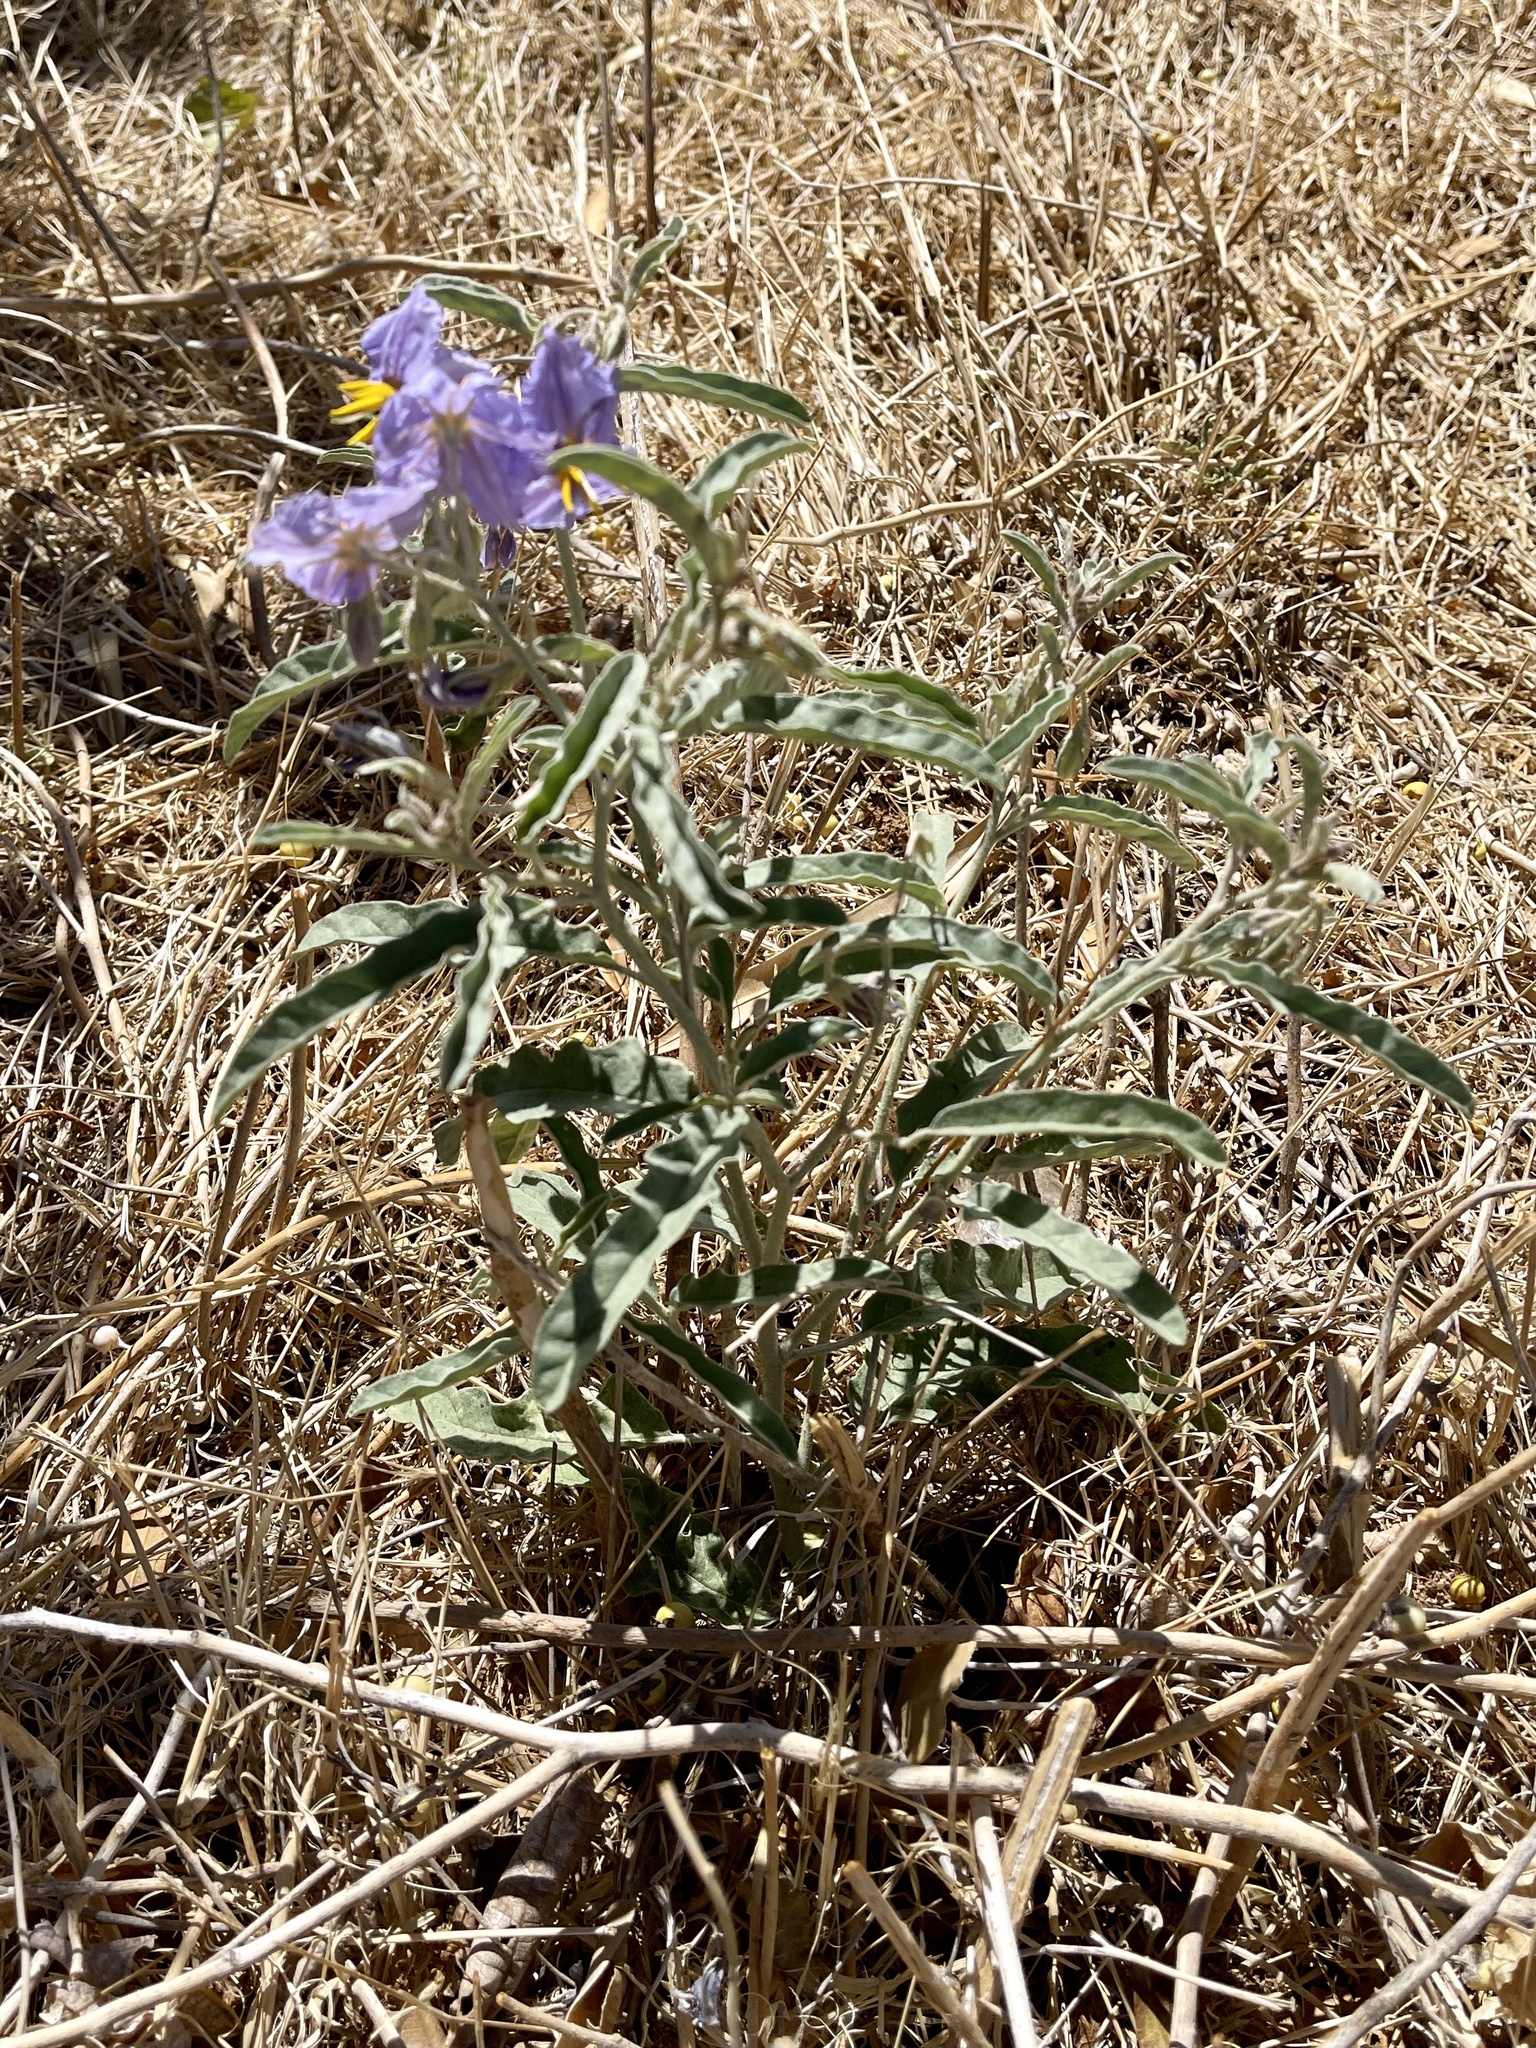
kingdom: Plantae
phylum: Tracheophyta
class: Magnoliopsida
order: Solanales
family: Solanaceae
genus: Solanum
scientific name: Solanum elaeagnifolium
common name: Silverleaf nightshade
